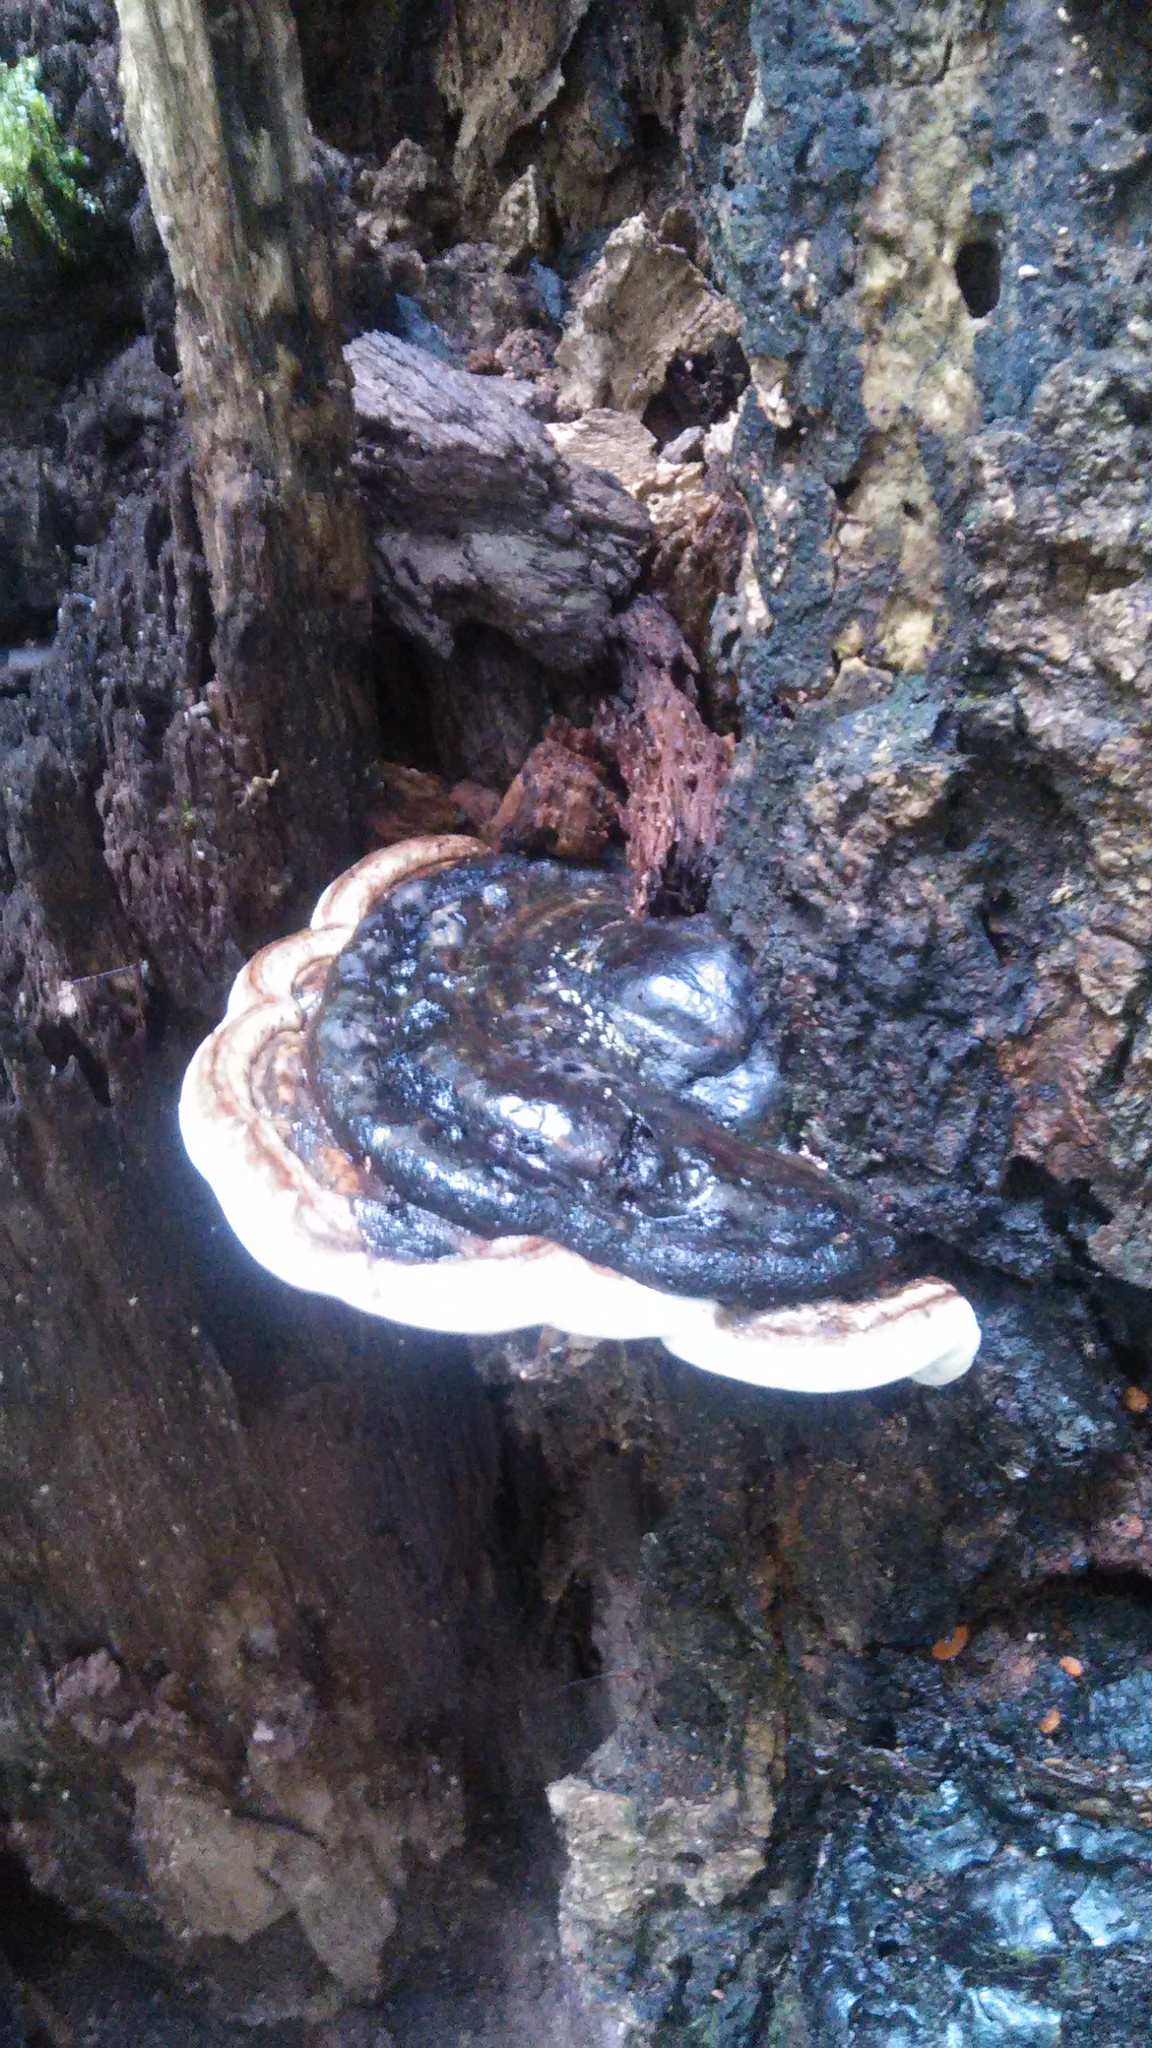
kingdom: Fungi
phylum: Basidiomycota
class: Agaricomycetes
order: Polyporales
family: Polyporaceae
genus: Ganoderma
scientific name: Ganoderma lobatum
